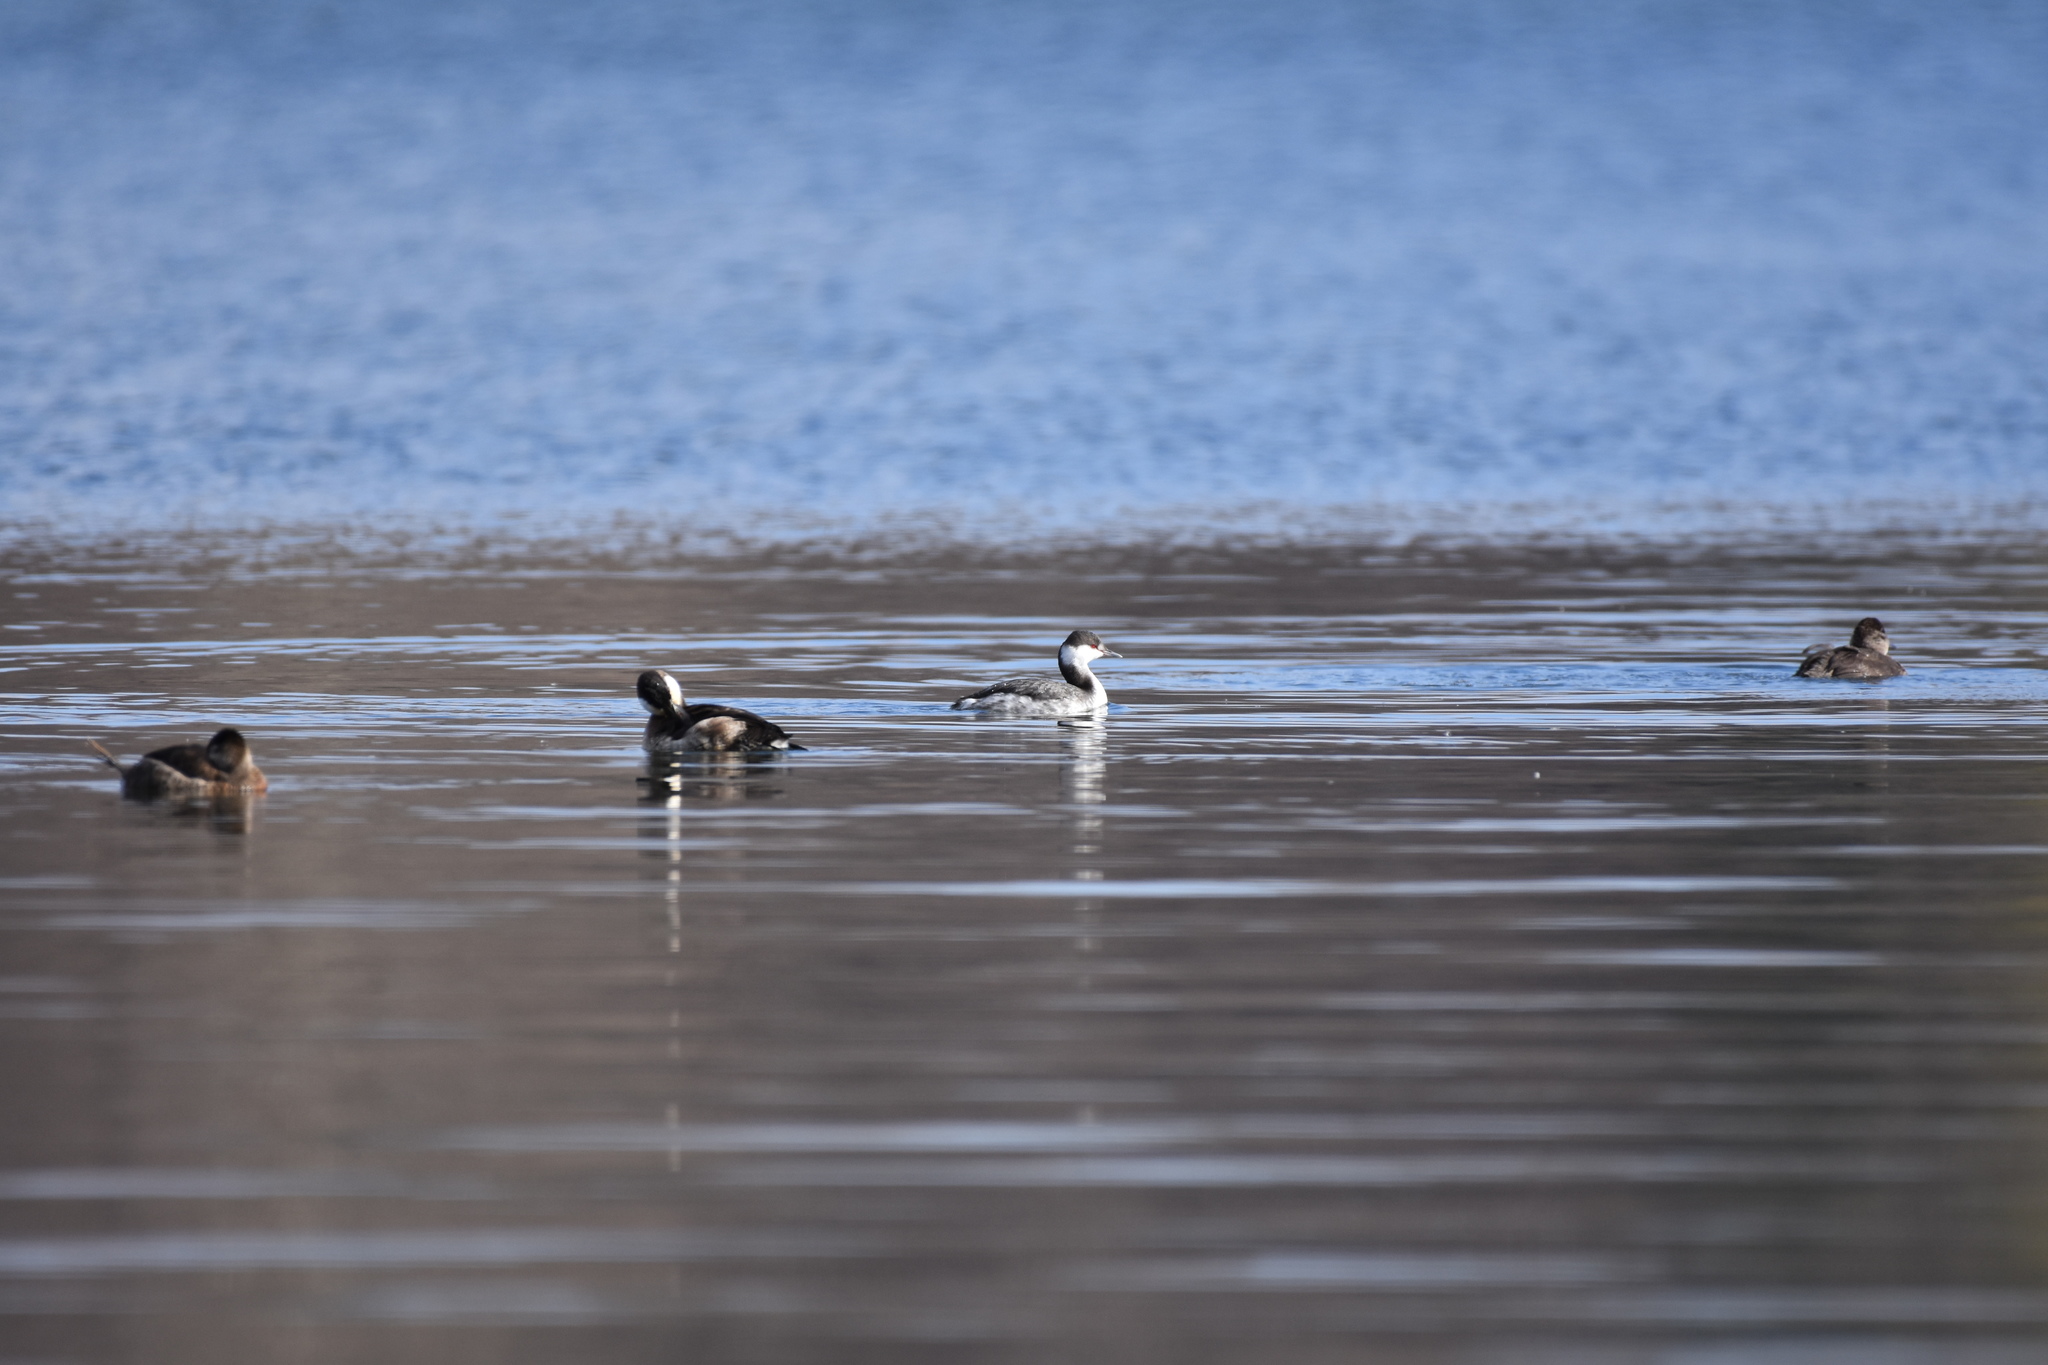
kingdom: Animalia
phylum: Chordata
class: Aves
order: Podicipediformes
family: Podicipedidae
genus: Podiceps
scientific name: Podiceps auritus
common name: Horned grebe
